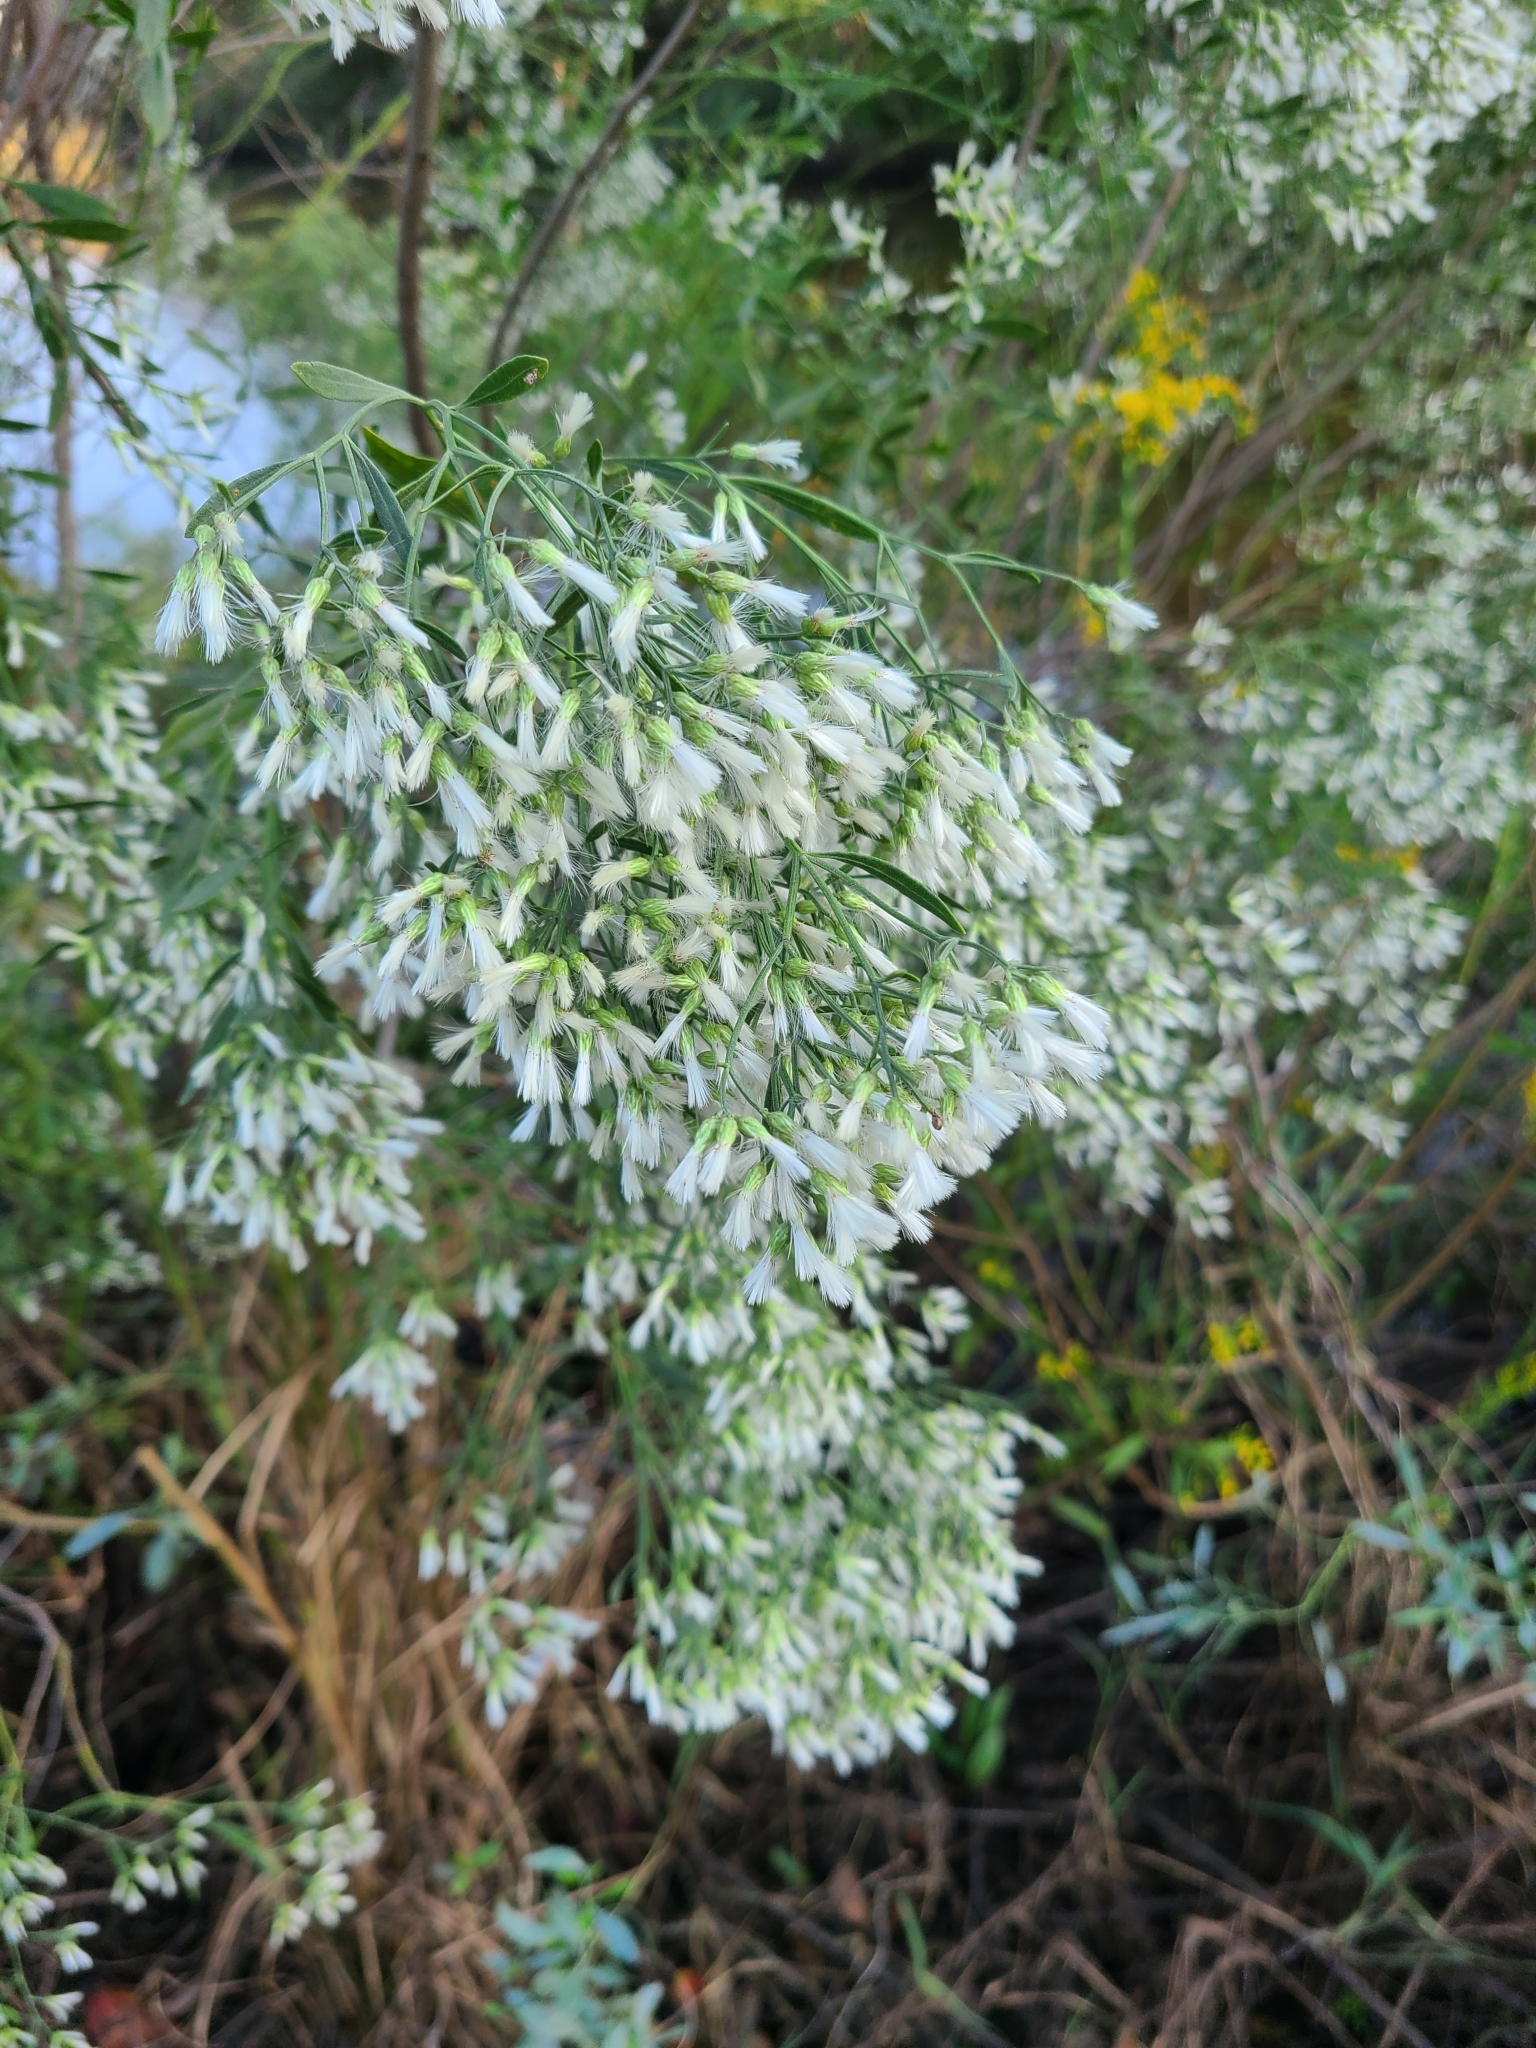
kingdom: Plantae
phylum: Tracheophyta
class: Magnoliopsida
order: Asterales
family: Asteraceae
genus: Baccharis
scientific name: Baccharis halimifolia
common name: Eastern baccharis
